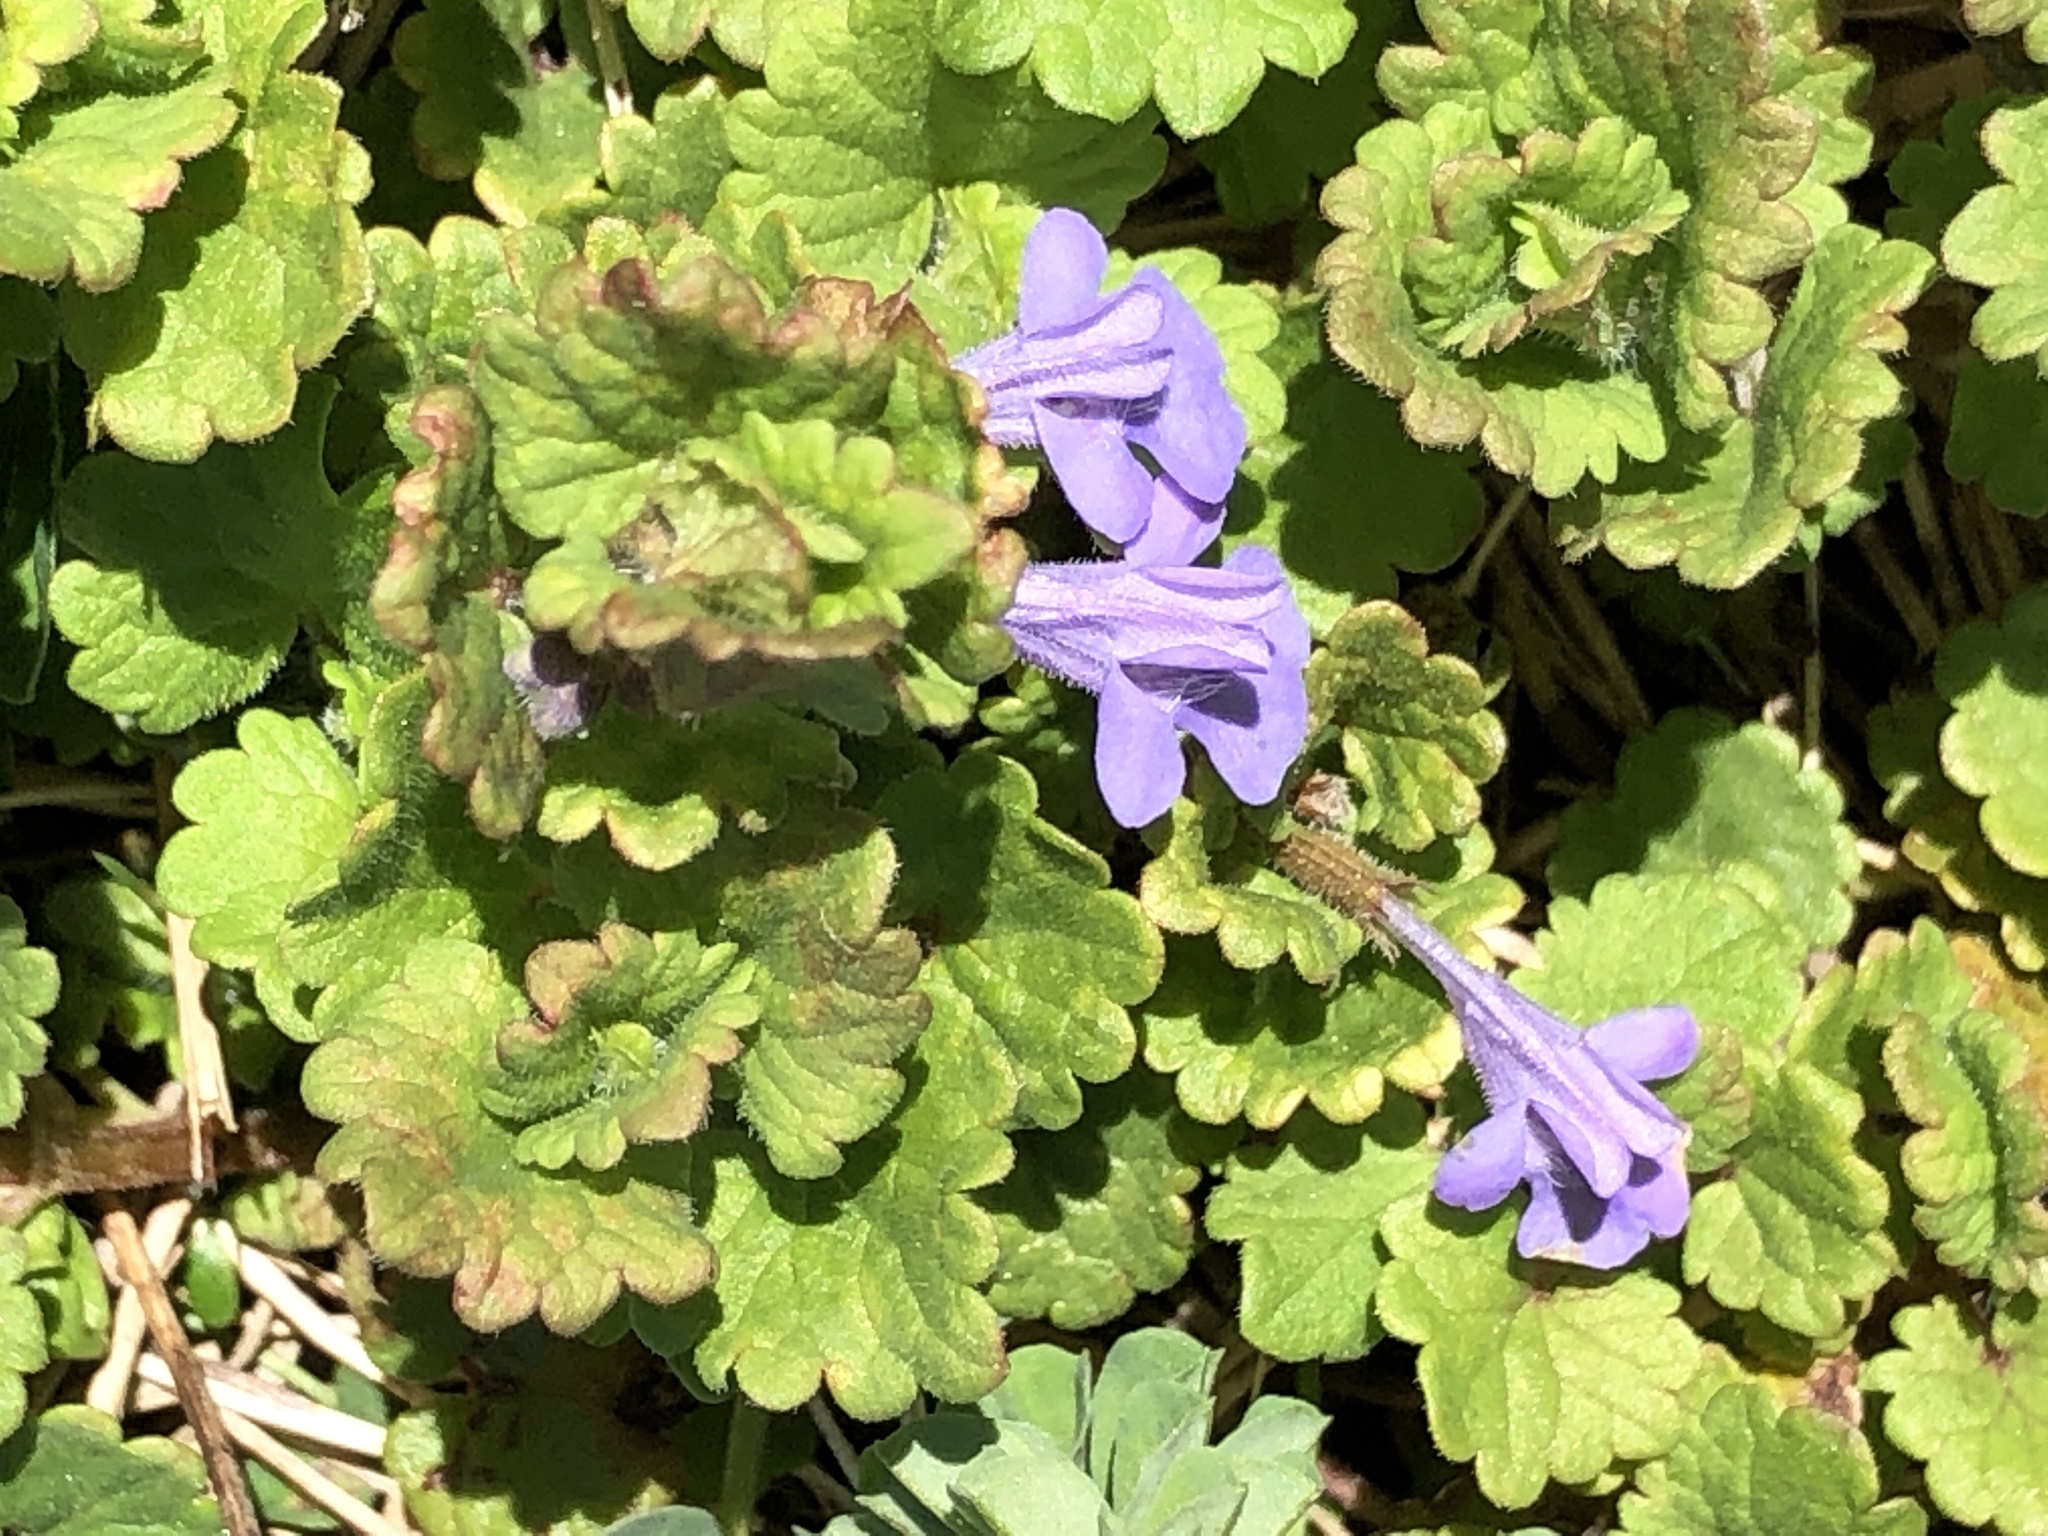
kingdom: Plantae
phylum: Tracheophyta
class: Magnoliopsida
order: Lamiales
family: Lamiaceae
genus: Glechoma
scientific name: Glechoma hederacea
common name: Ground ivy
